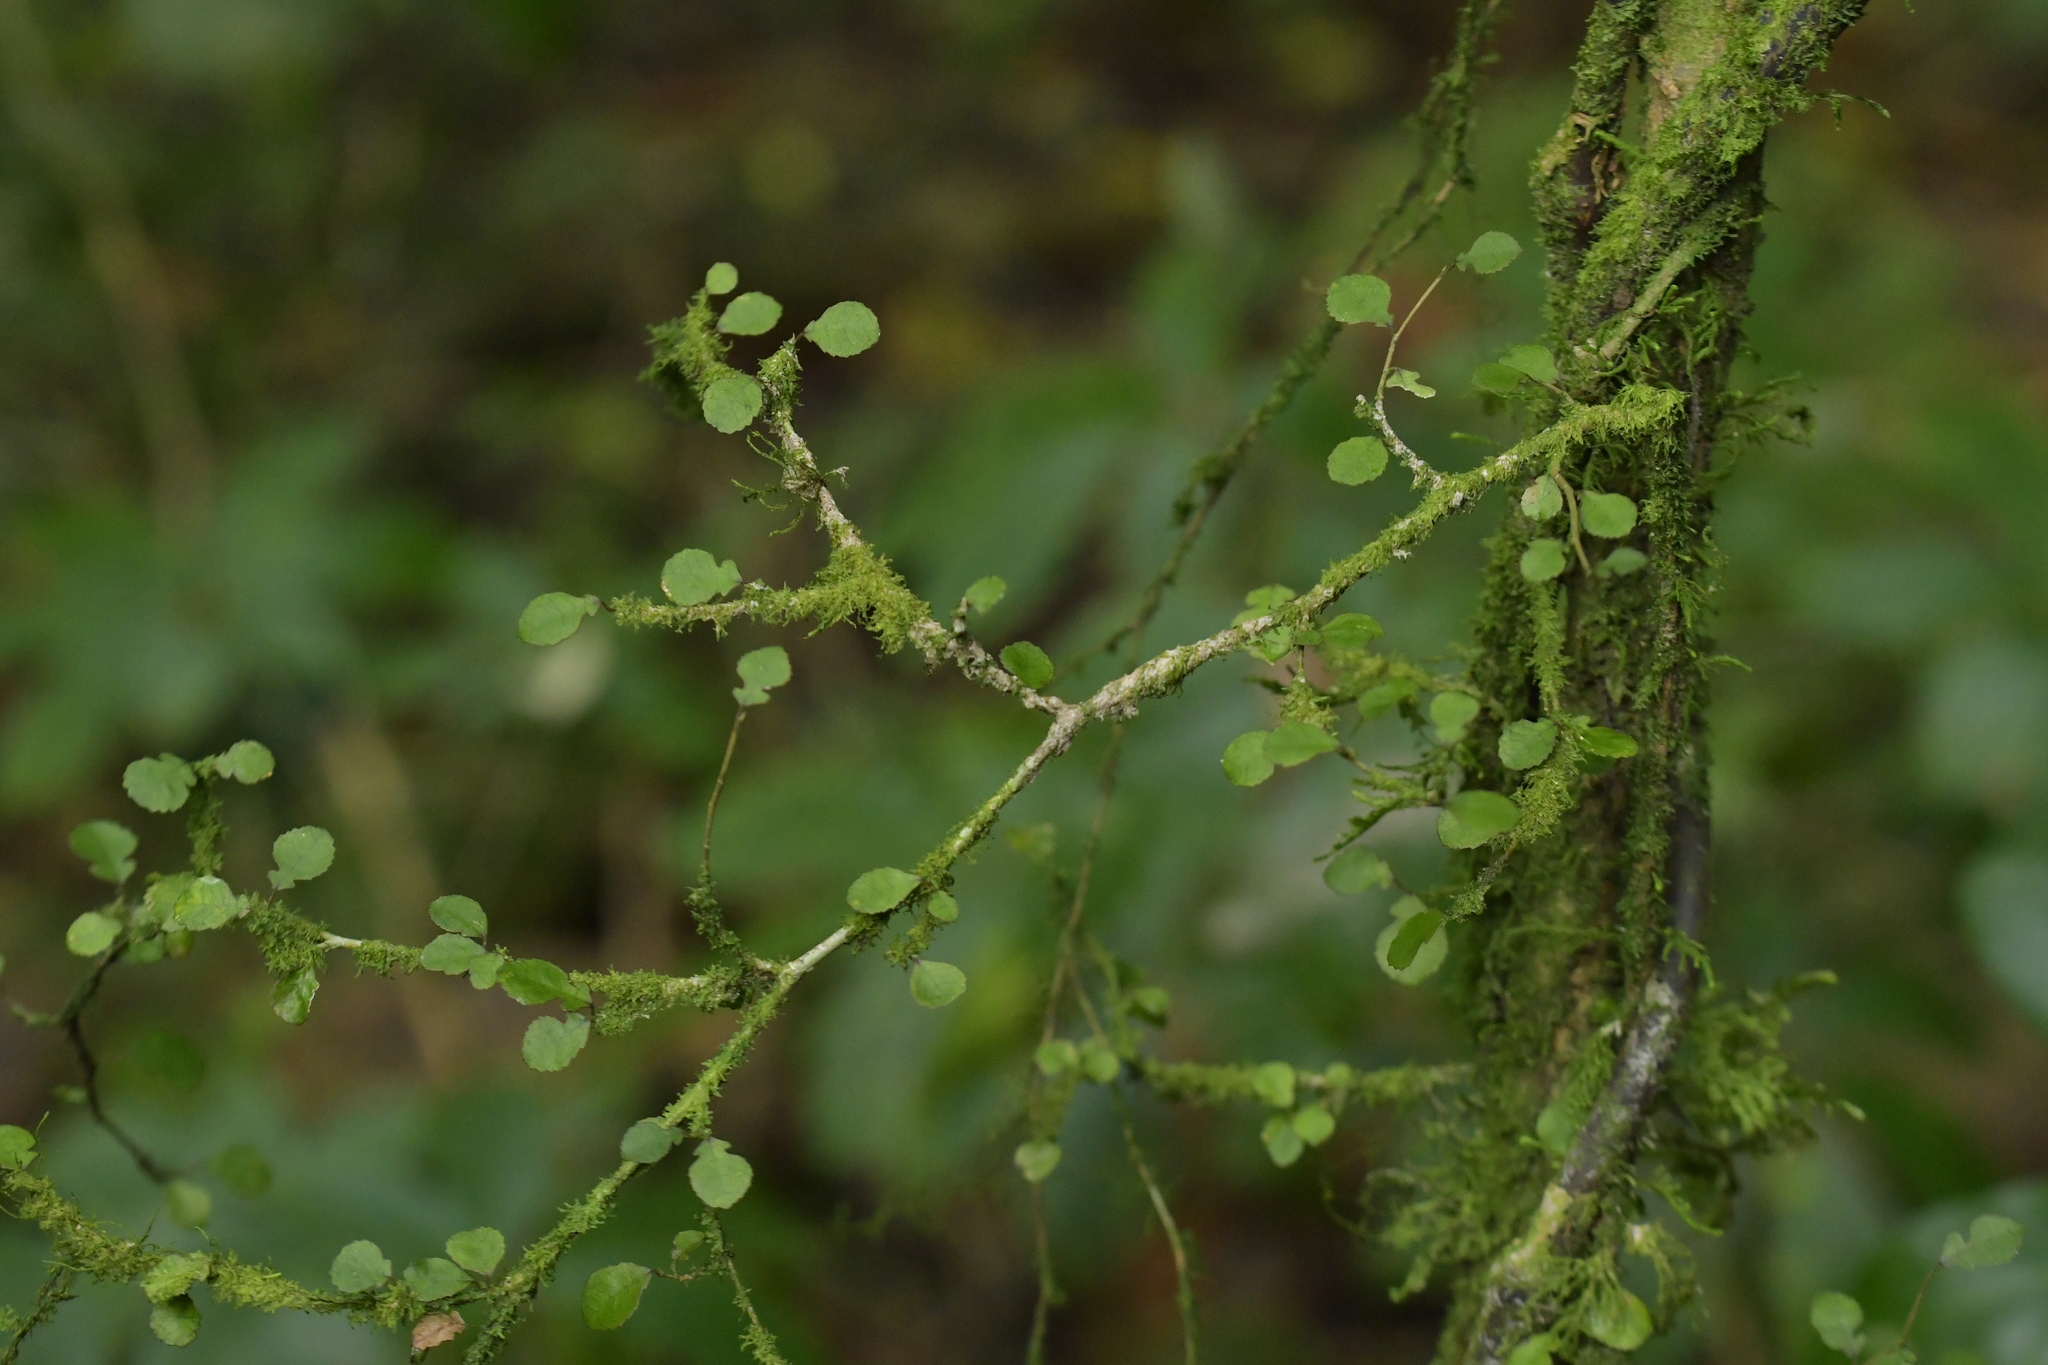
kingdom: Plantae
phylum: Tracheophyta
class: Magnoliopsida
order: Rosales
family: Moraceae
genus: Paratrophis
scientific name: Paratrophis microphylla
